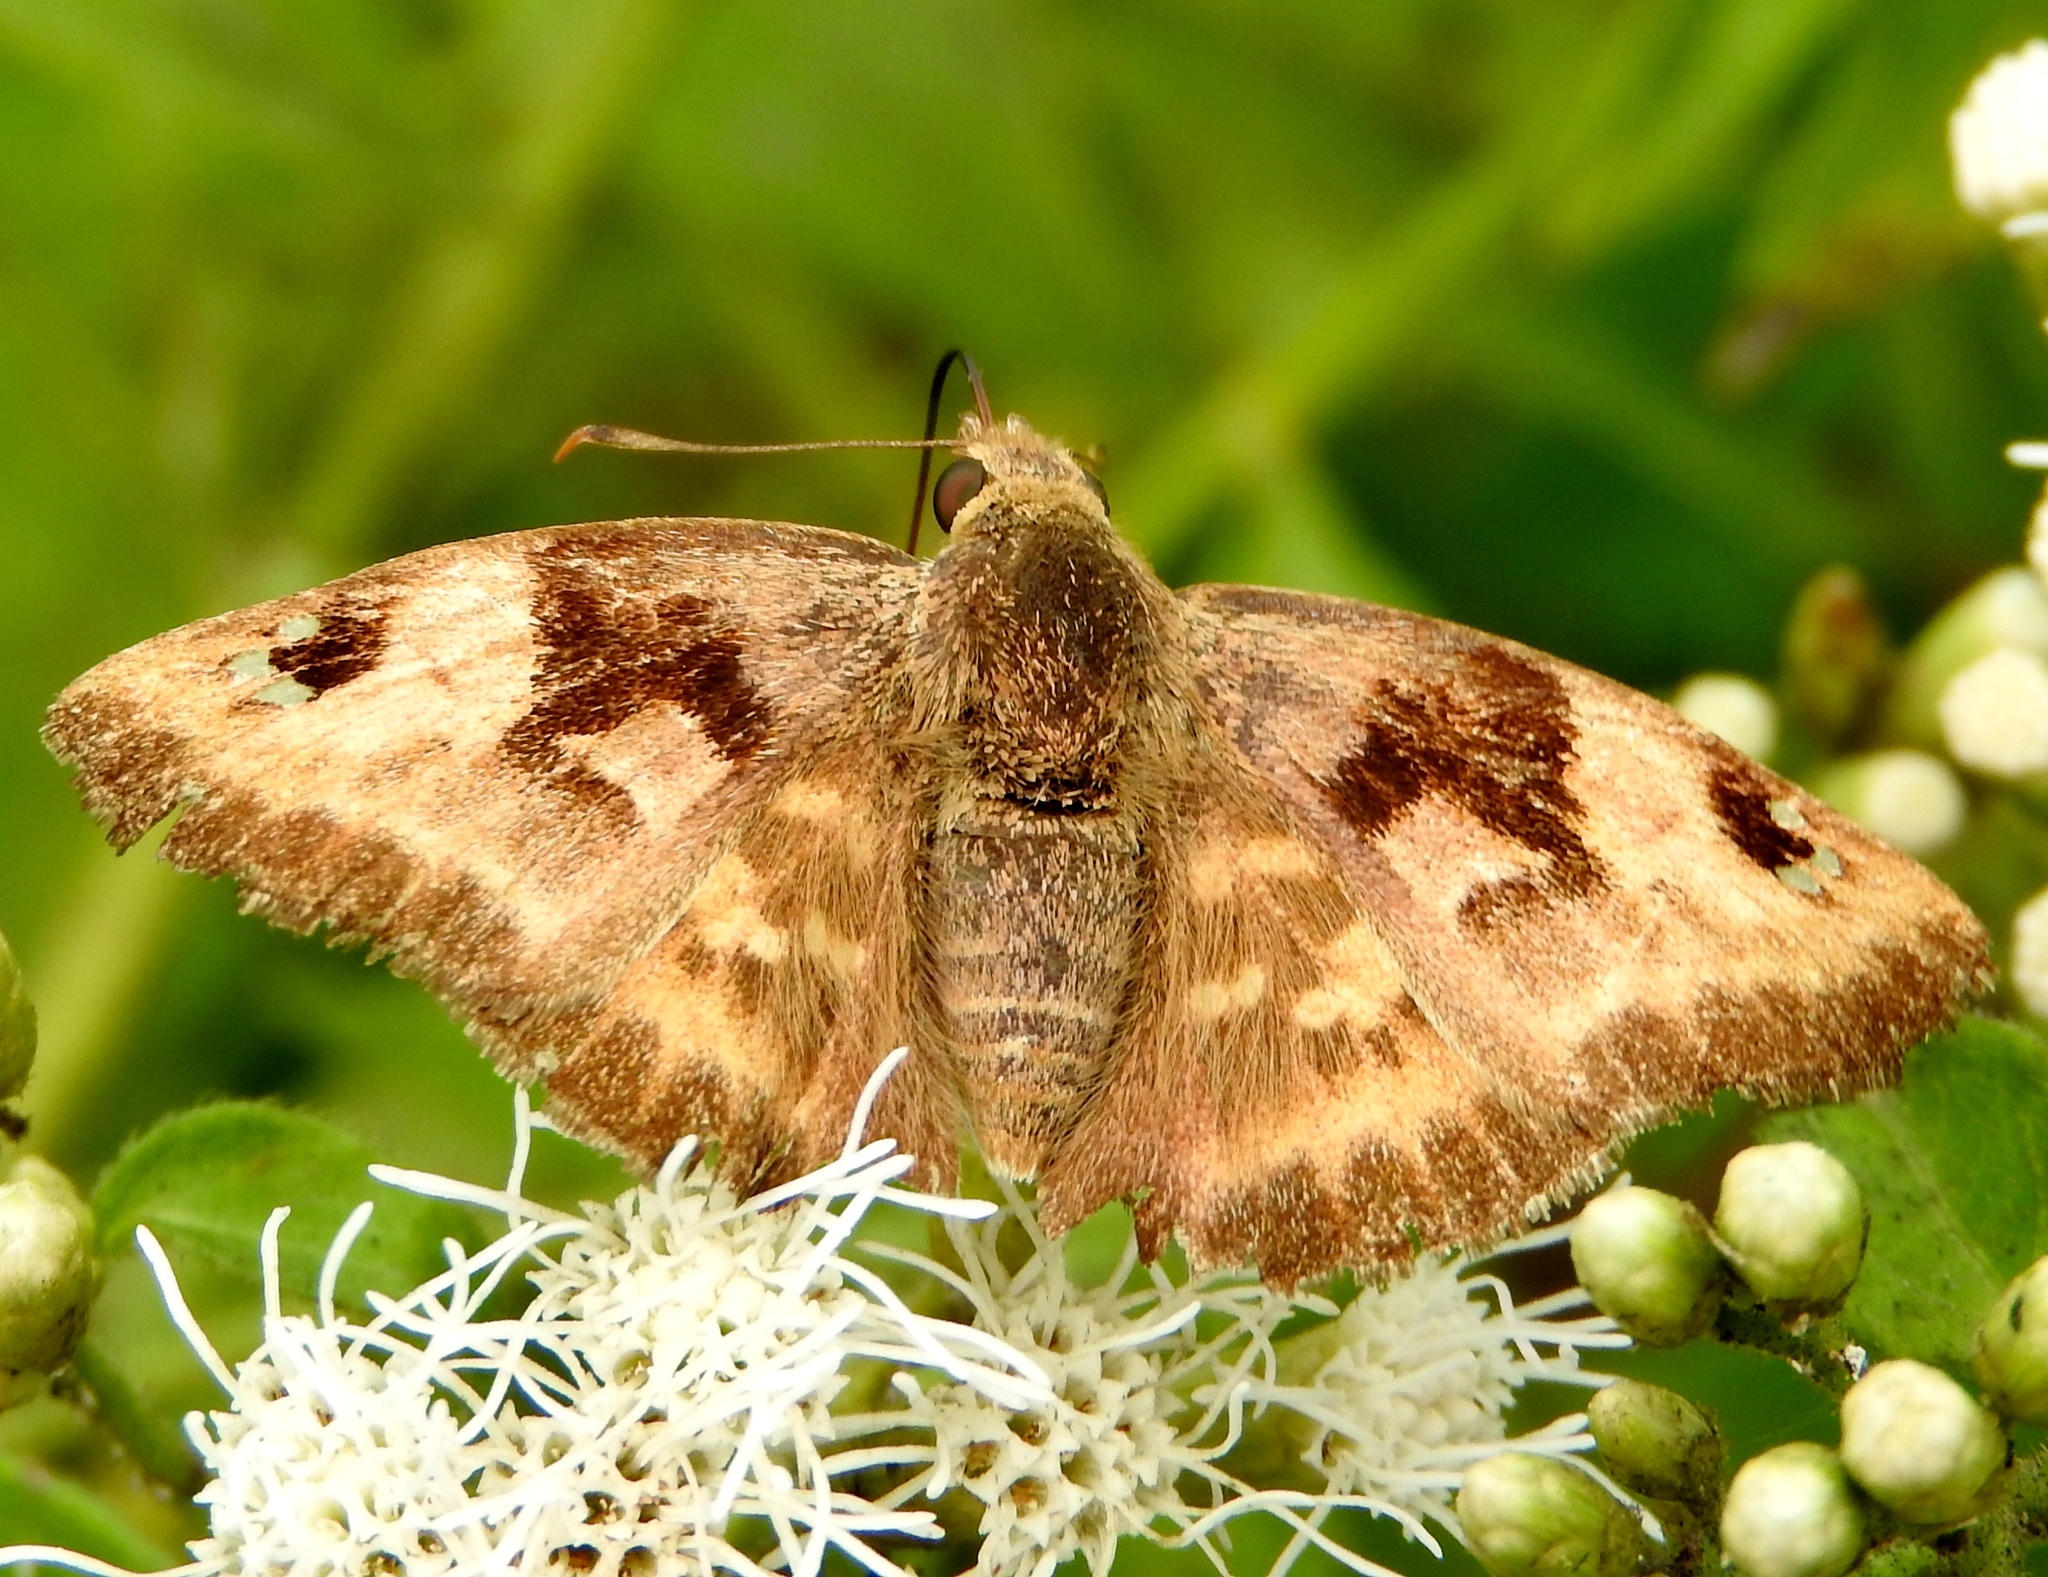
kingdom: Animalia
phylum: Arthropoda
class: Insecta
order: Lepidoptera
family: Hesperiidae
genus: Arteurotia
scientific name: Arteurotia tractipennis
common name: Starred skipper
